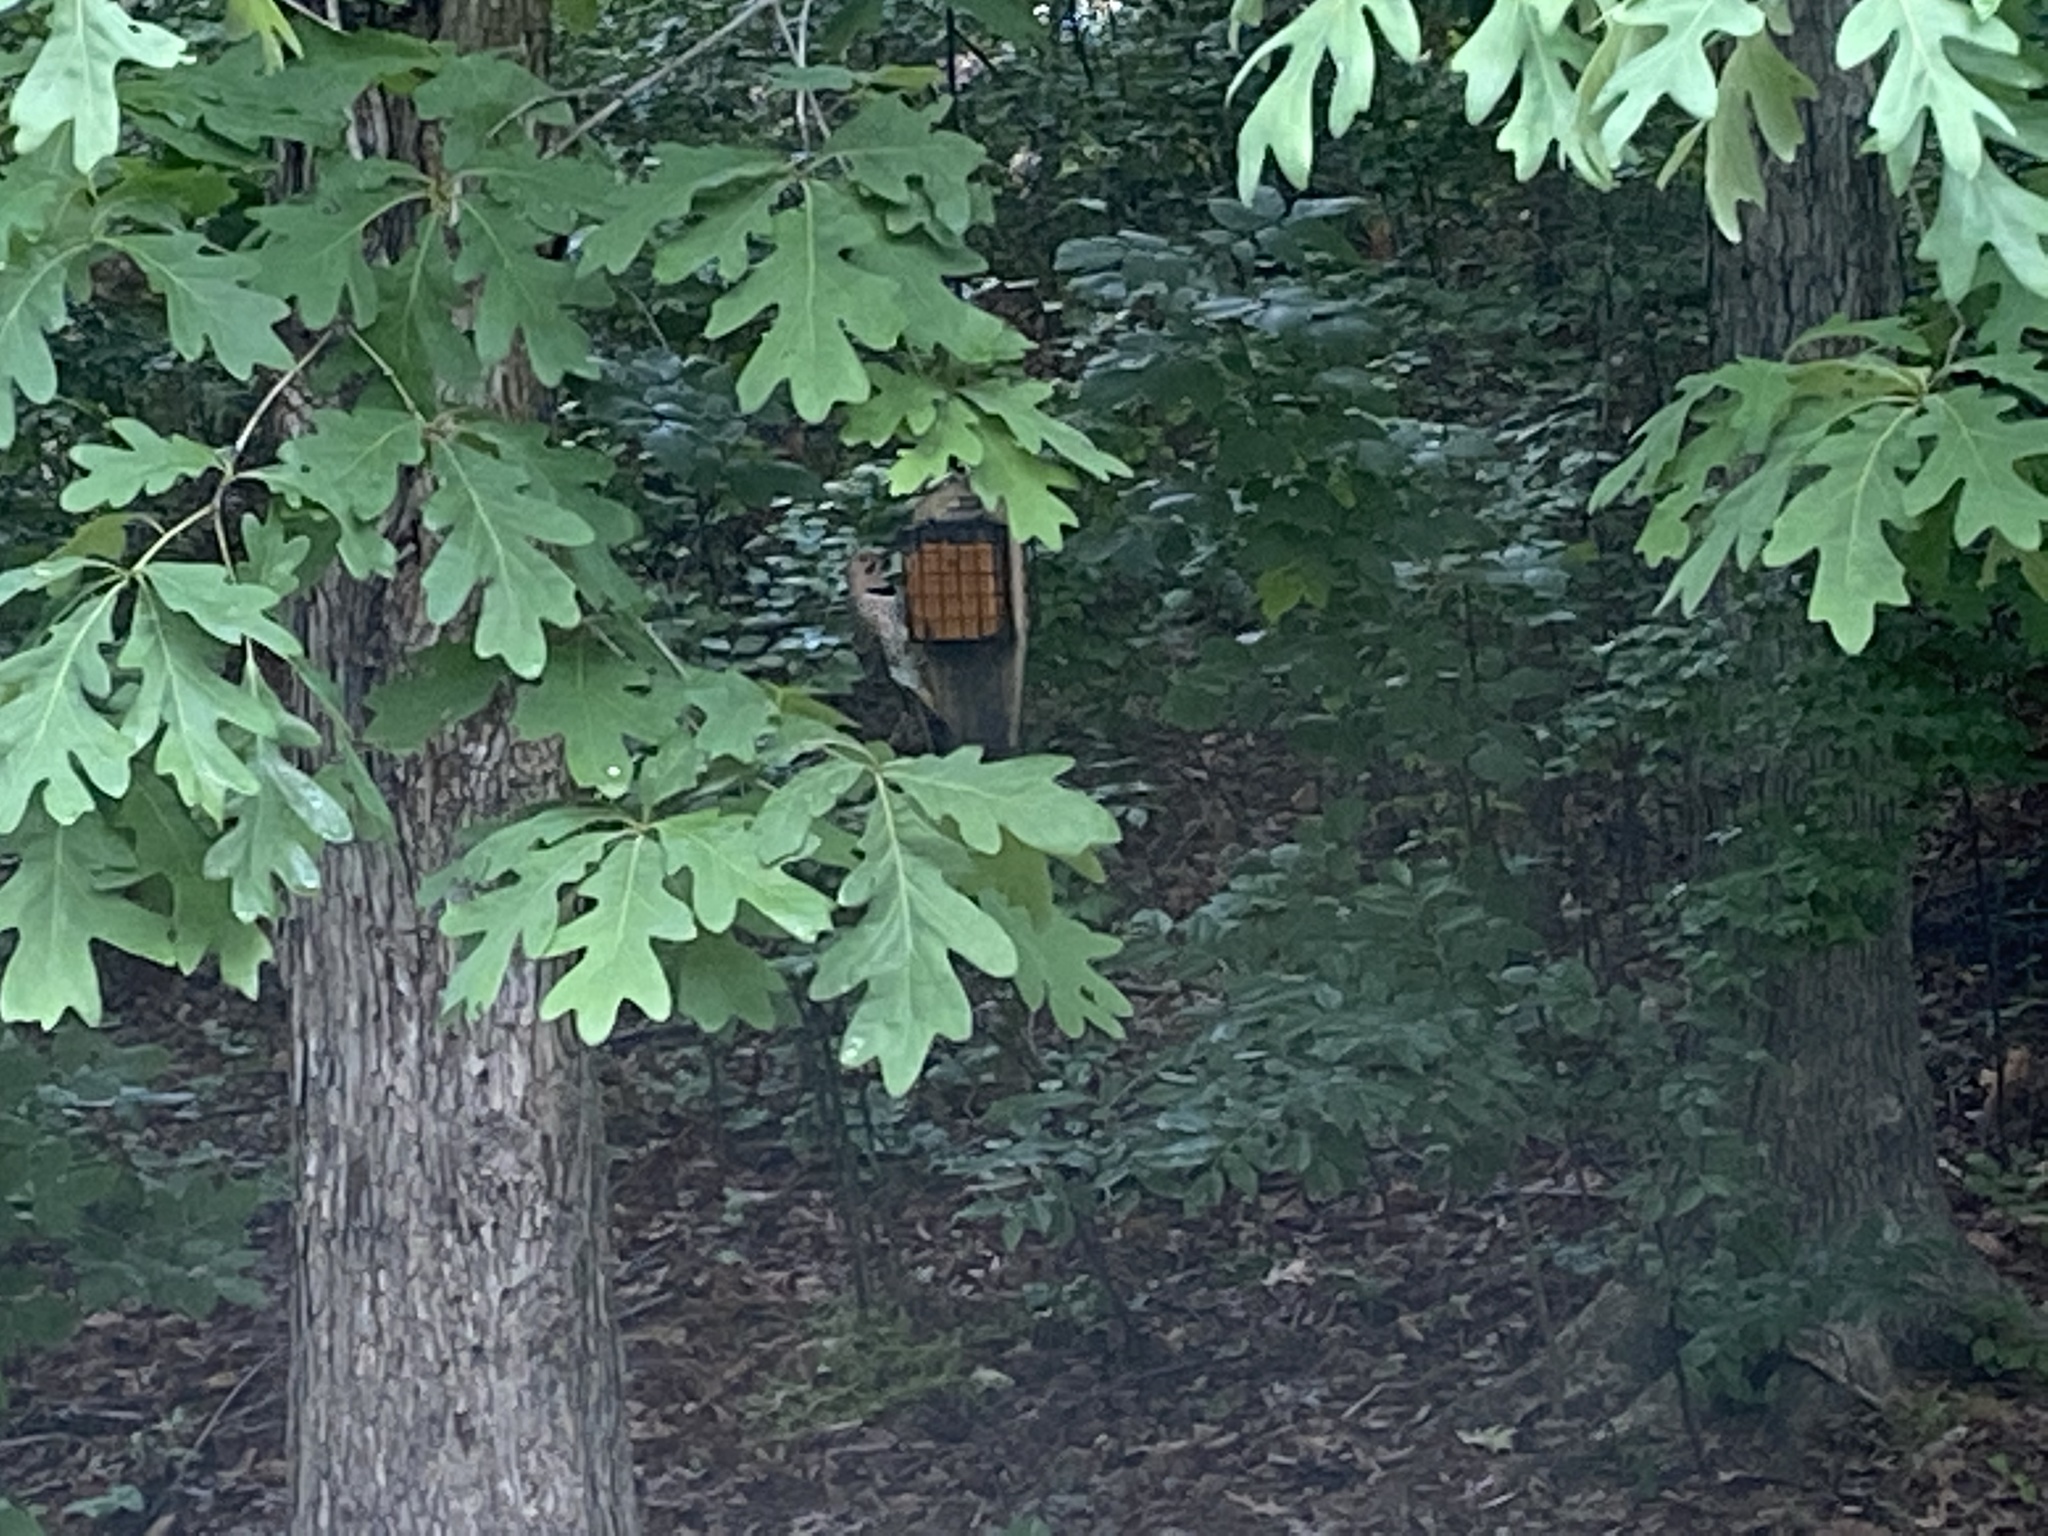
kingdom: Animalia
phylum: Chordata
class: Aves
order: Piciformes
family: Picidae
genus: Colaptes
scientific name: Colaptes auratus
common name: Northern flicker
